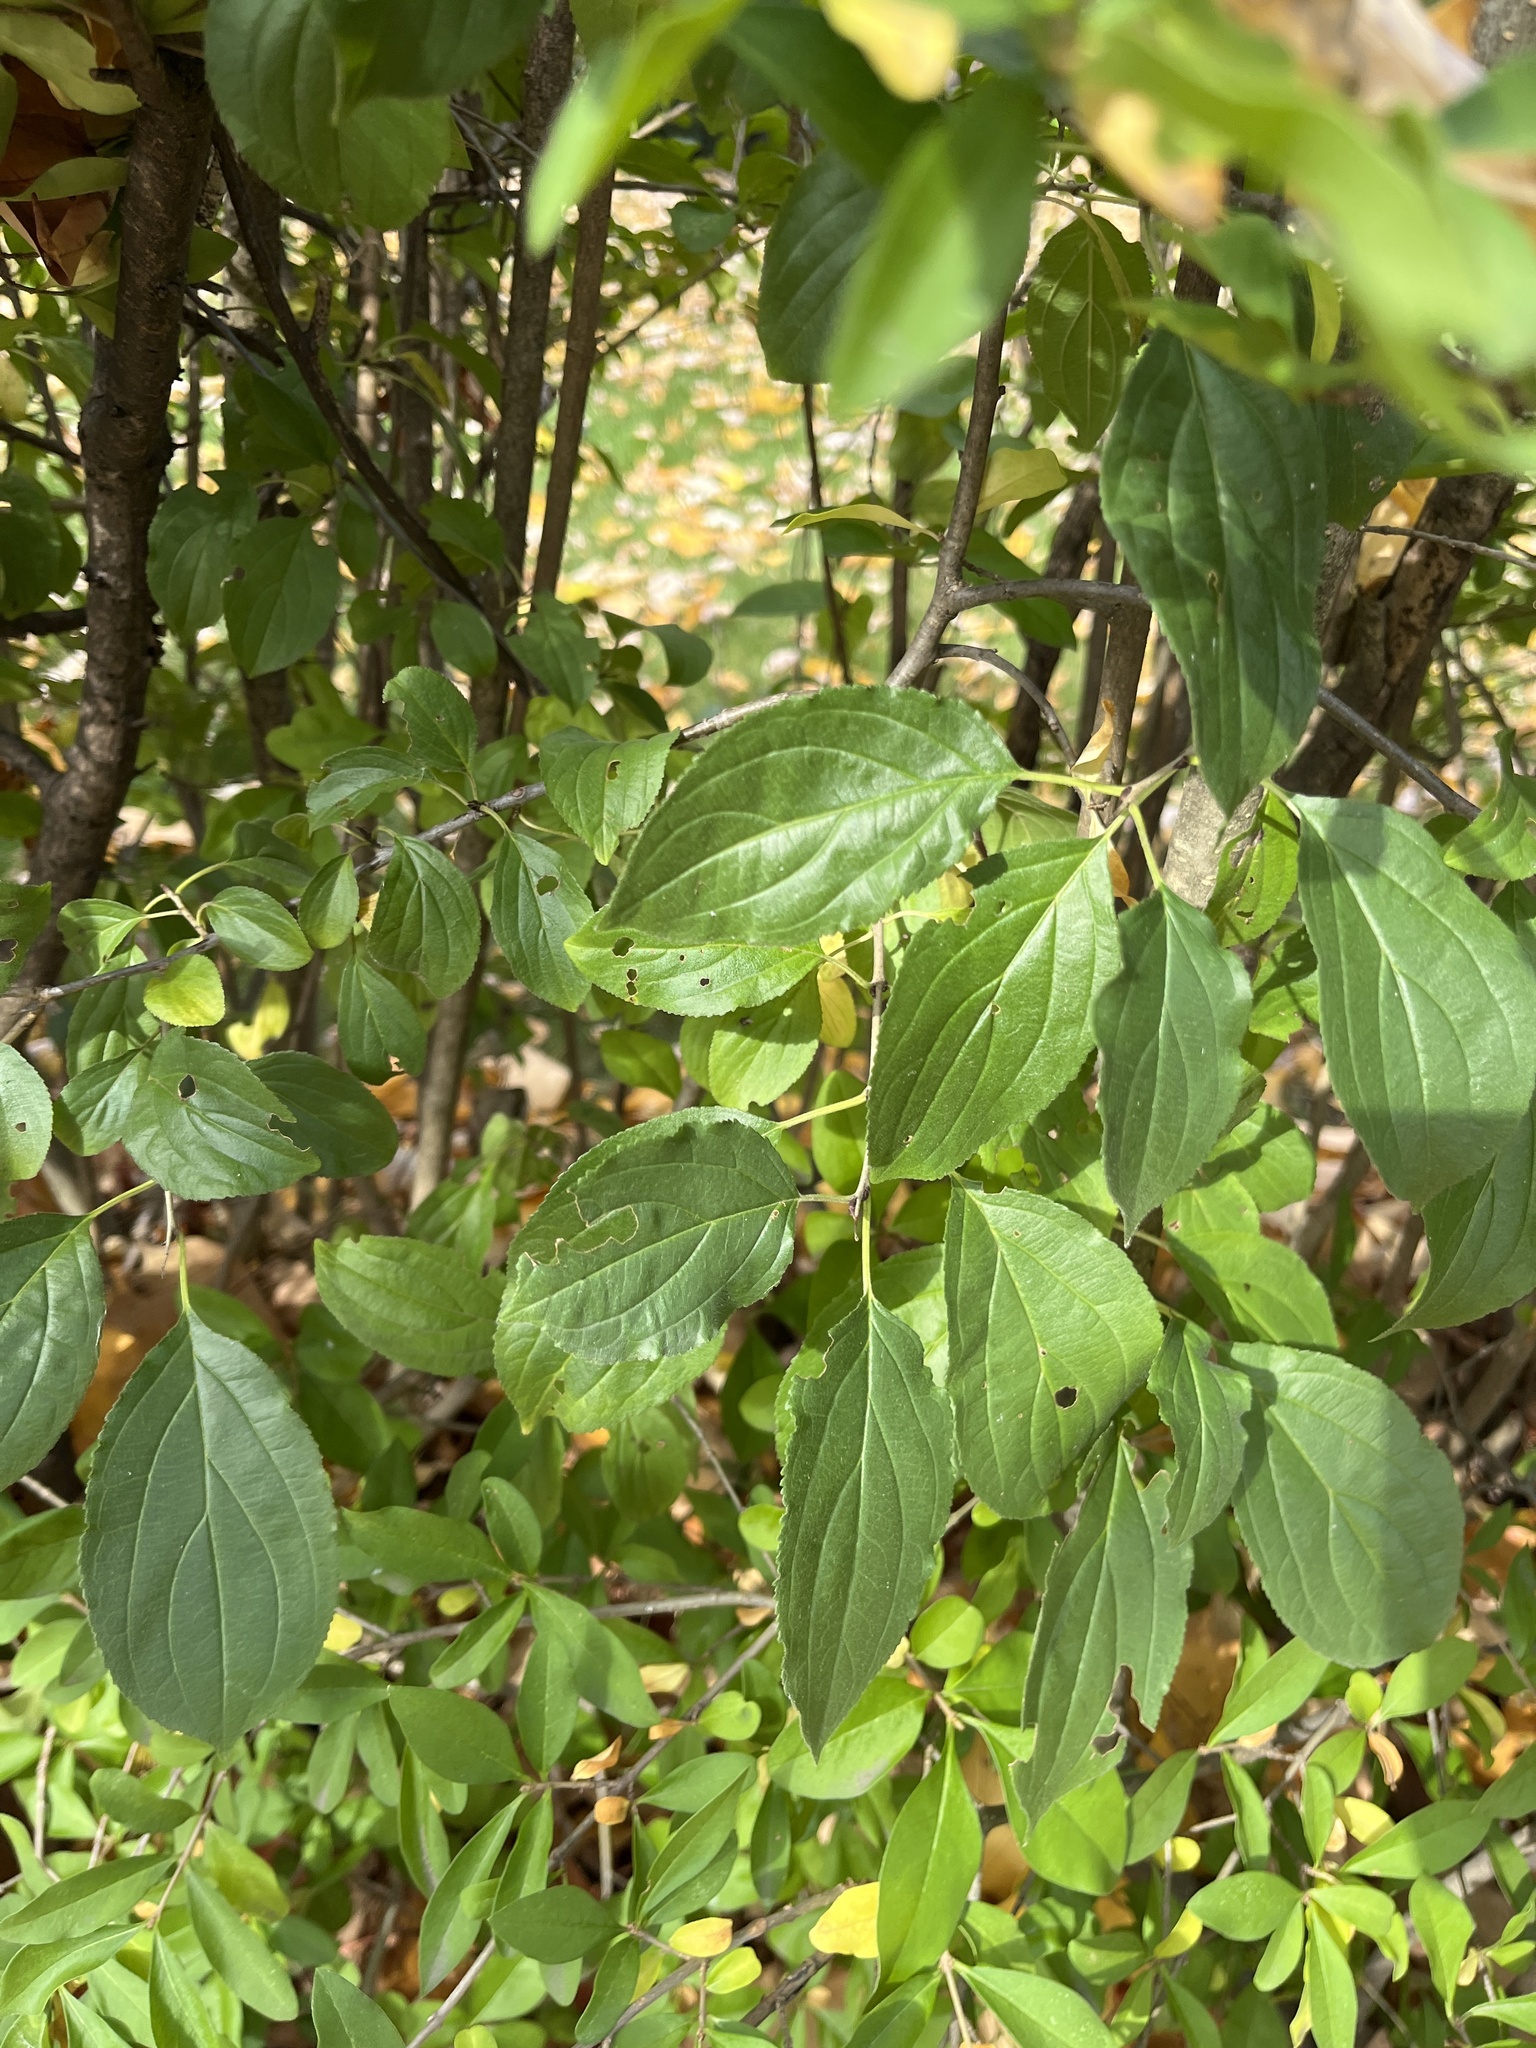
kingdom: Plantae
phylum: Tracheophyta
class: Magnoliopsida
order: Rosales
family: Rhamnaceae
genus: Rhamnus
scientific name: Rhamnus cathartica
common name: Common buckthorn
